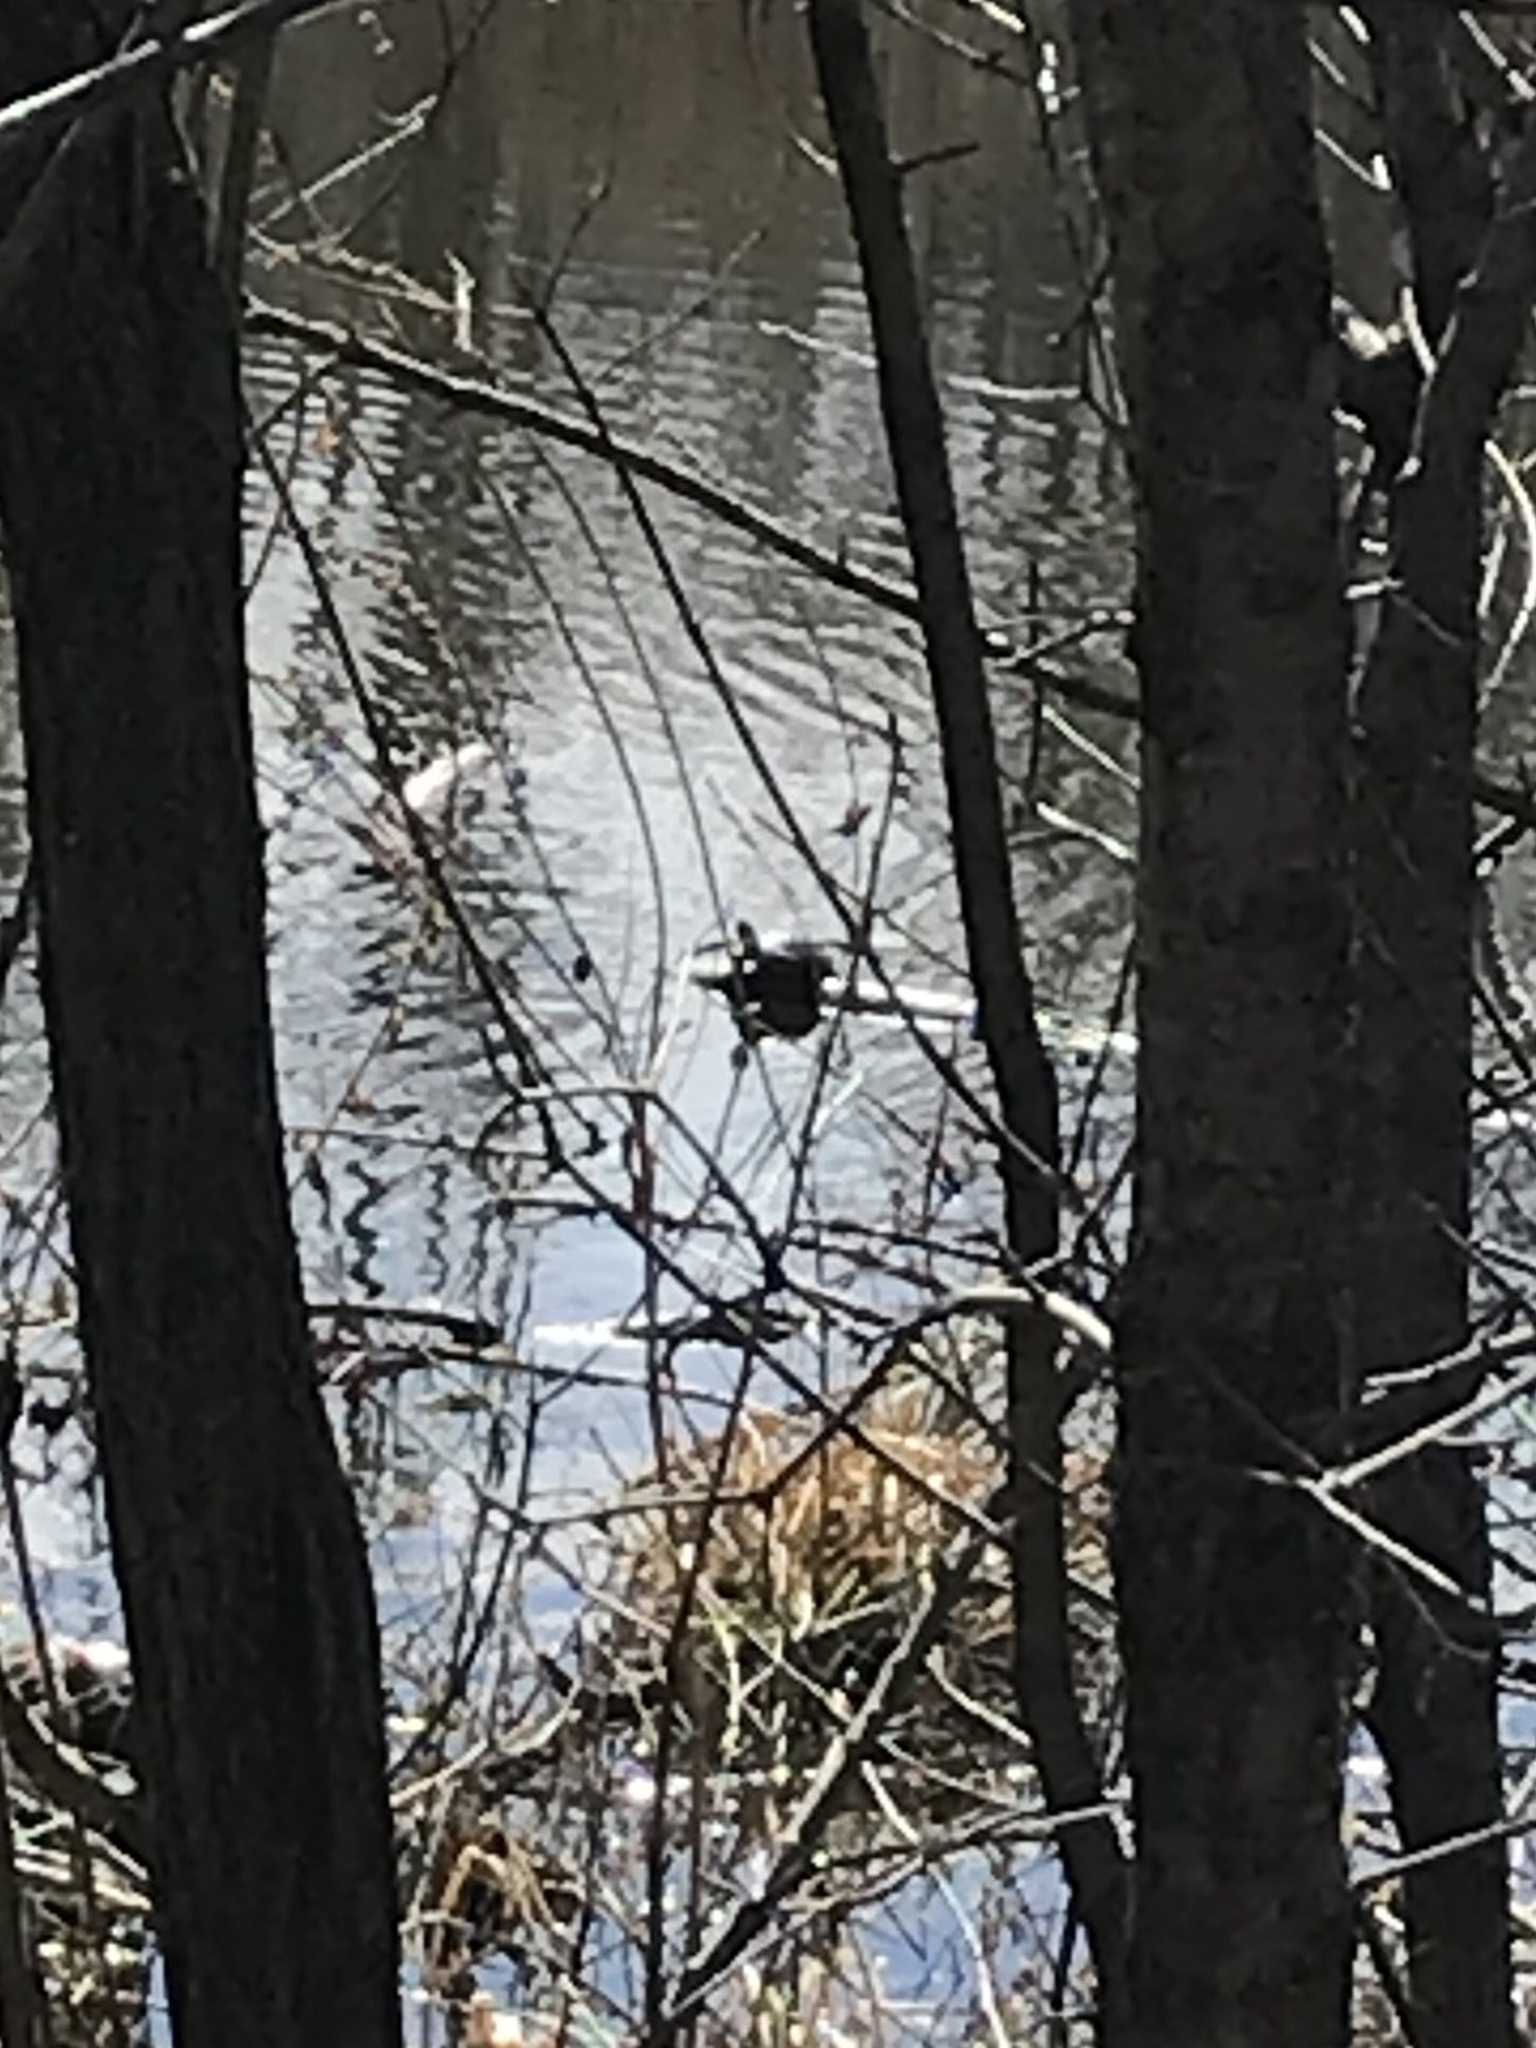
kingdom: Animalia
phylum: Chordata
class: Testudines
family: Emydidae
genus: Chrysemys
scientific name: Chrysemys picta
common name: Painted turtle
